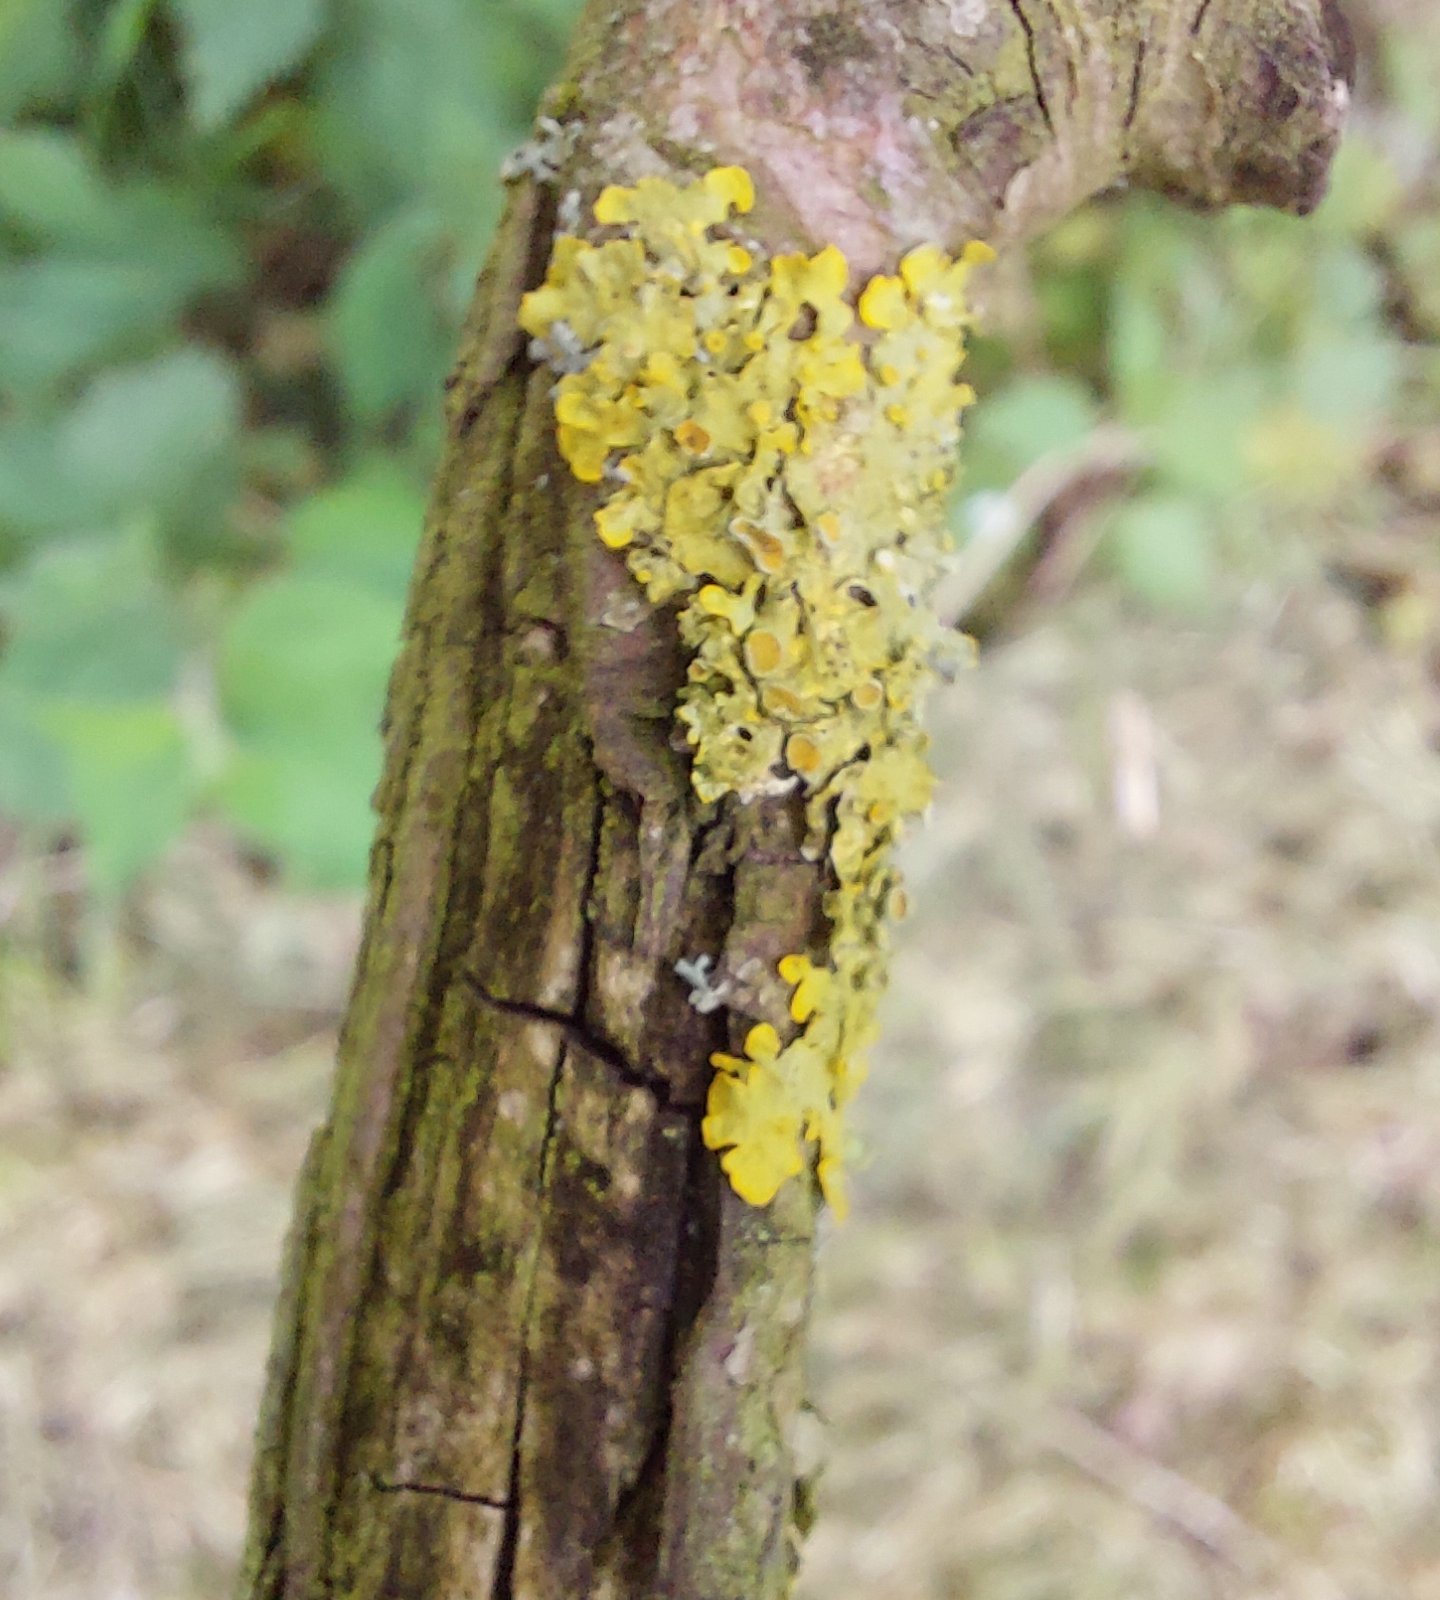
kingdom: Fungi
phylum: Ascomycota
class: Lecanoromycetes
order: Teloschistales
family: Teloschistaceae
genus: Xanthoria
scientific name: Xanthoria parietina
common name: Common orange lichen
